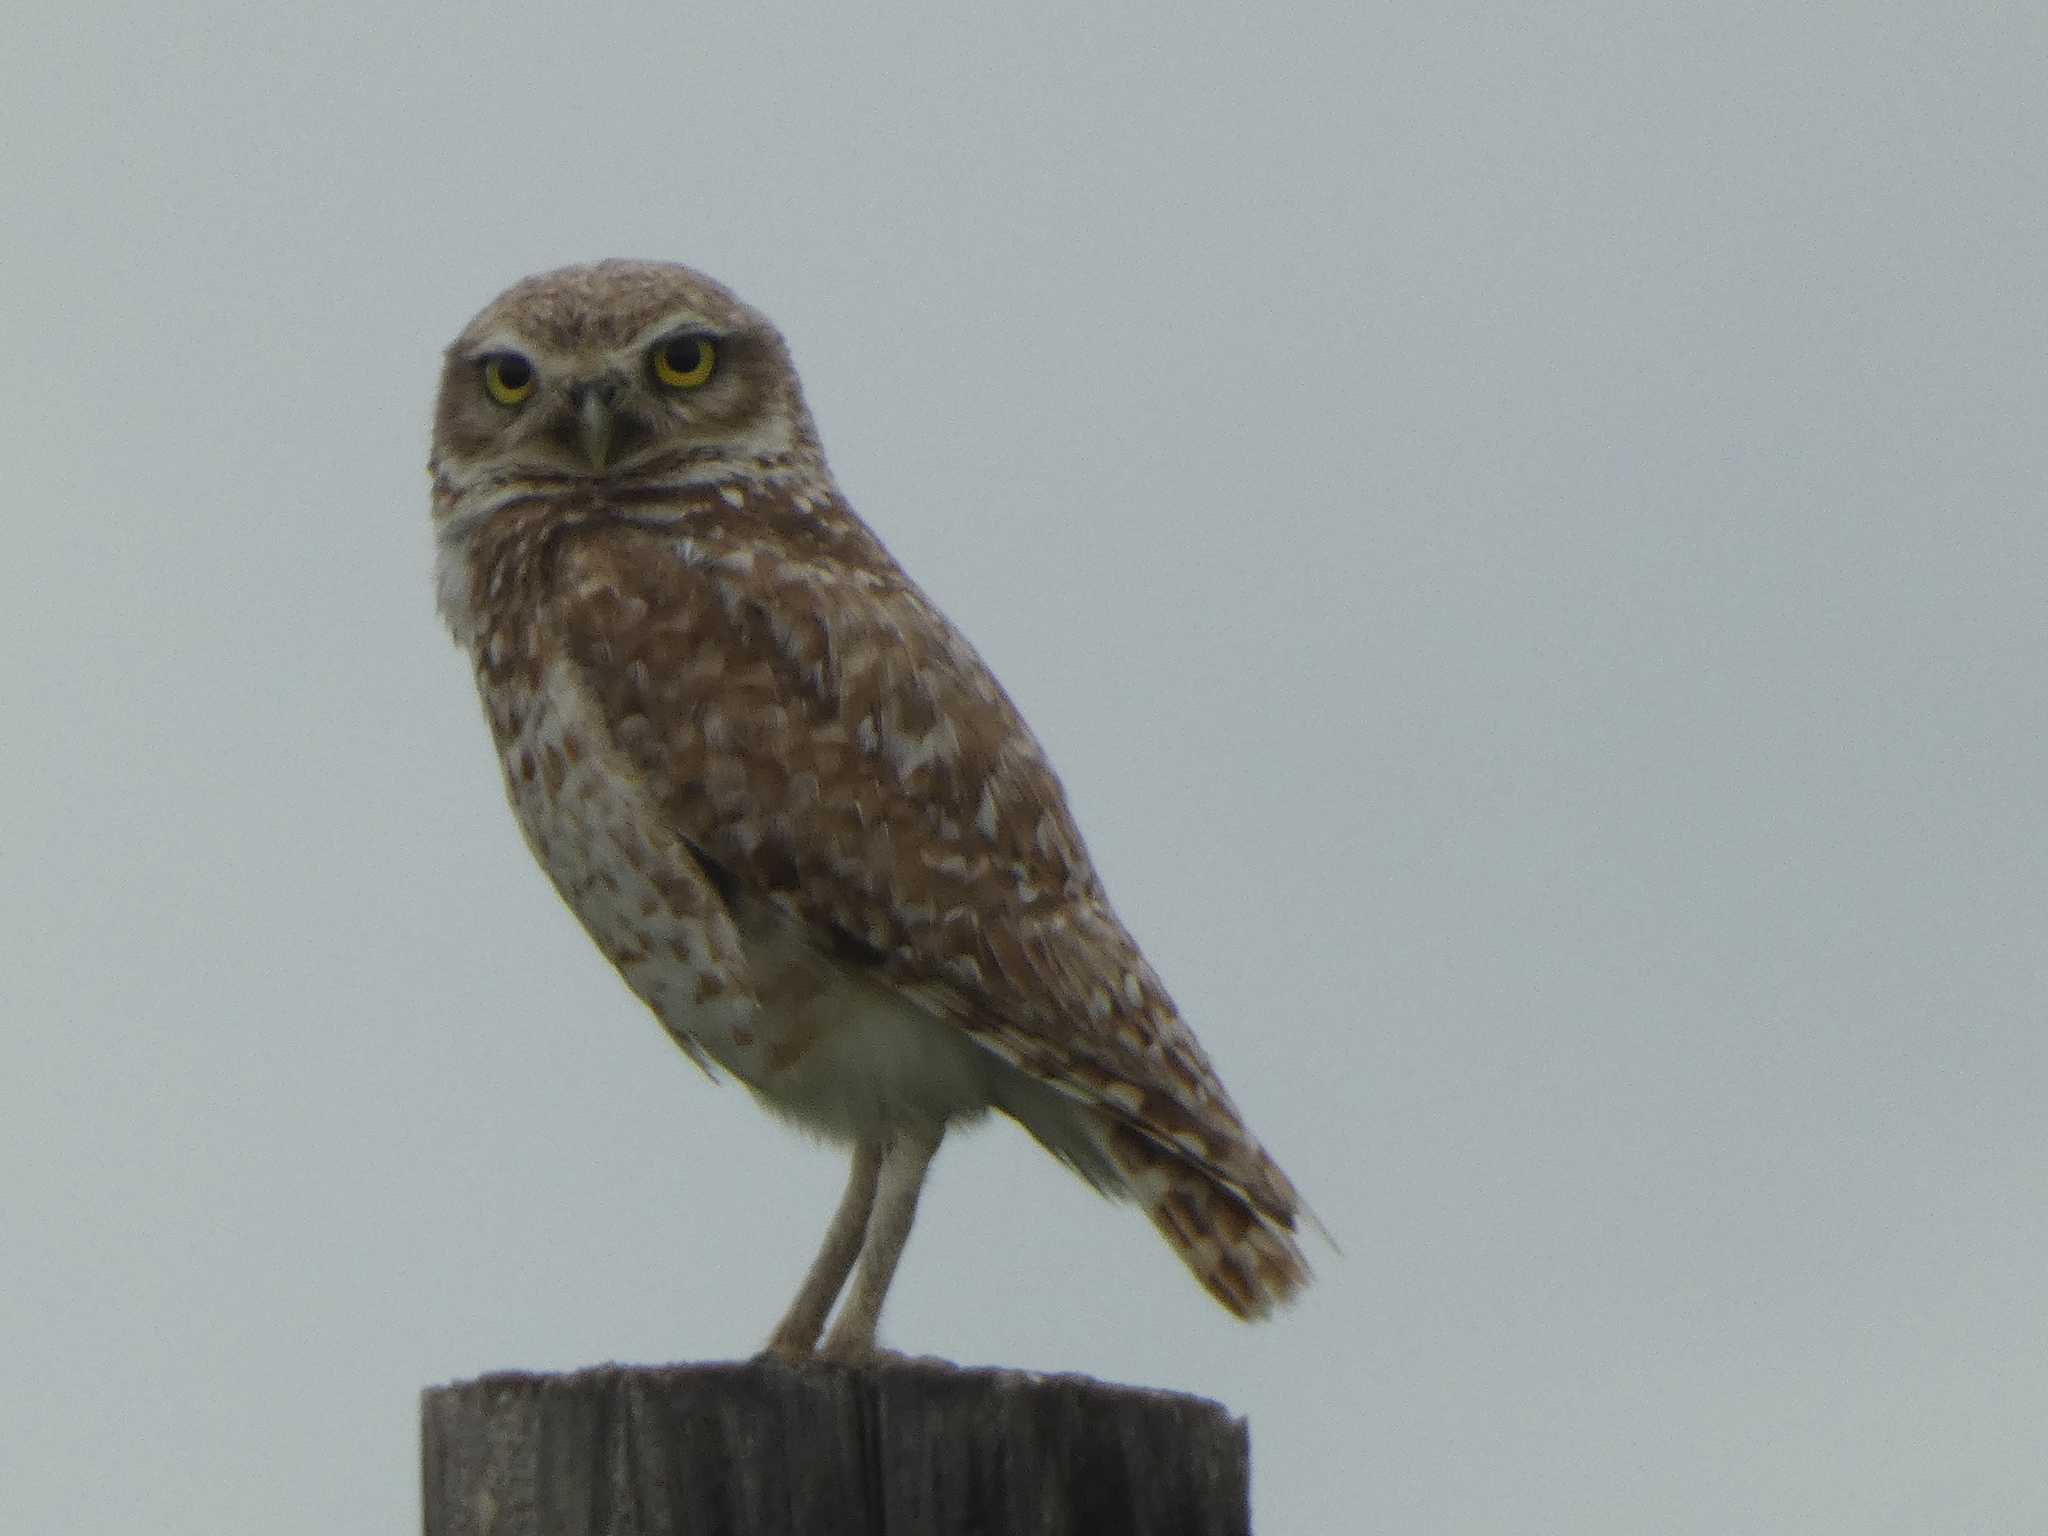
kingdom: Animalia
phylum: Chordata
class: Aves
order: Strigiformes
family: Strigidae
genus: Athene
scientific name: Athene cunicularia
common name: Burrowing owl
